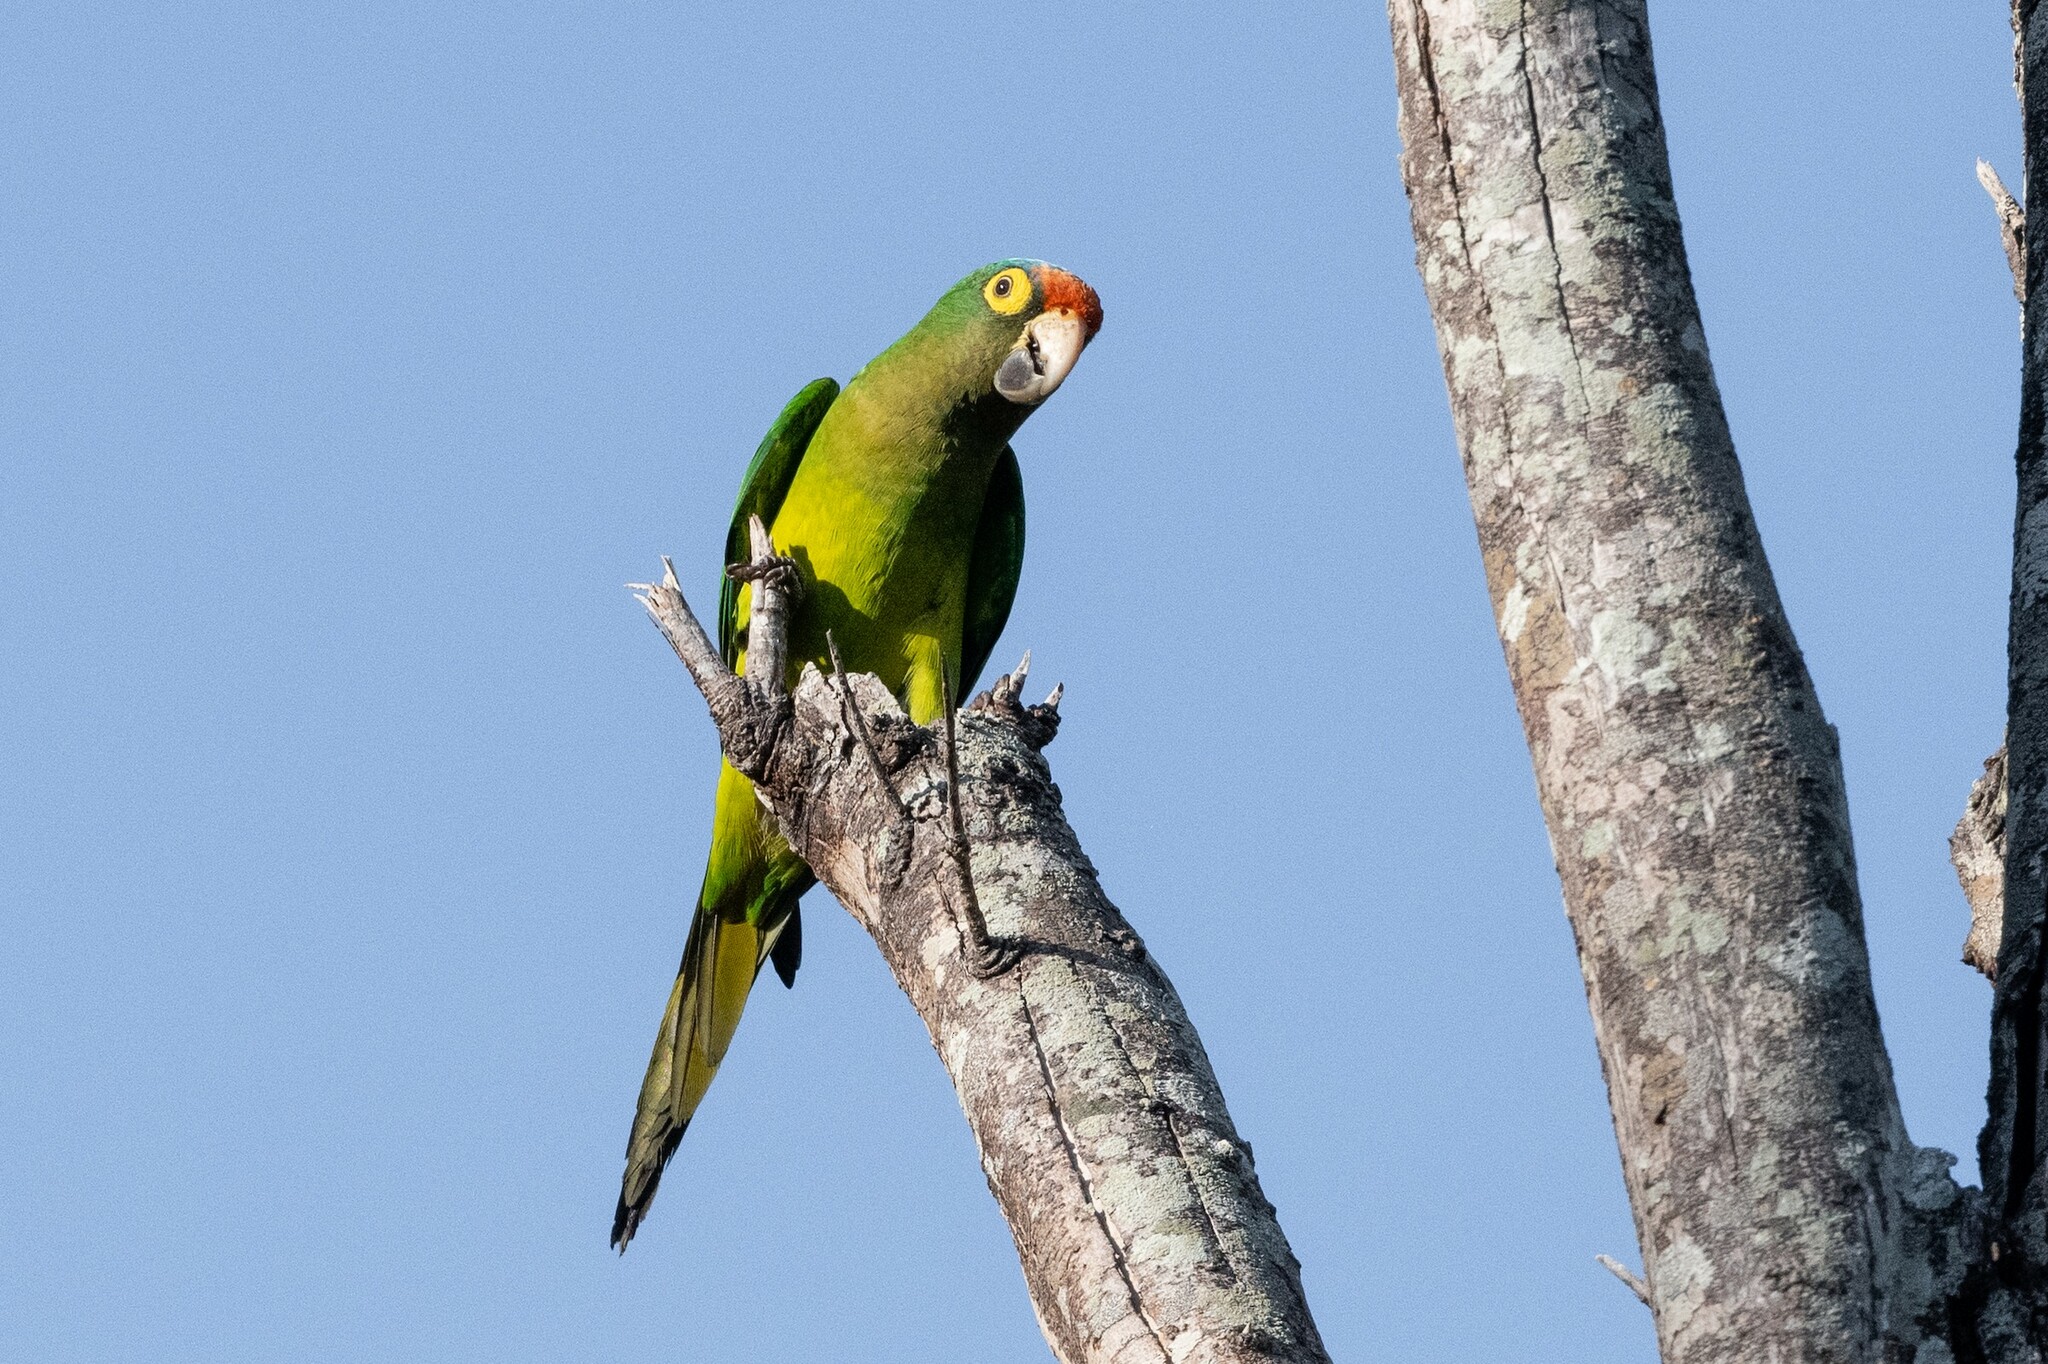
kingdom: Animalia
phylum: Chordata
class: Aves
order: Psittaciformes
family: Psittacidae
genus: Aratinga
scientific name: Aratinga canicularis
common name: Orange-fronted parakeet
